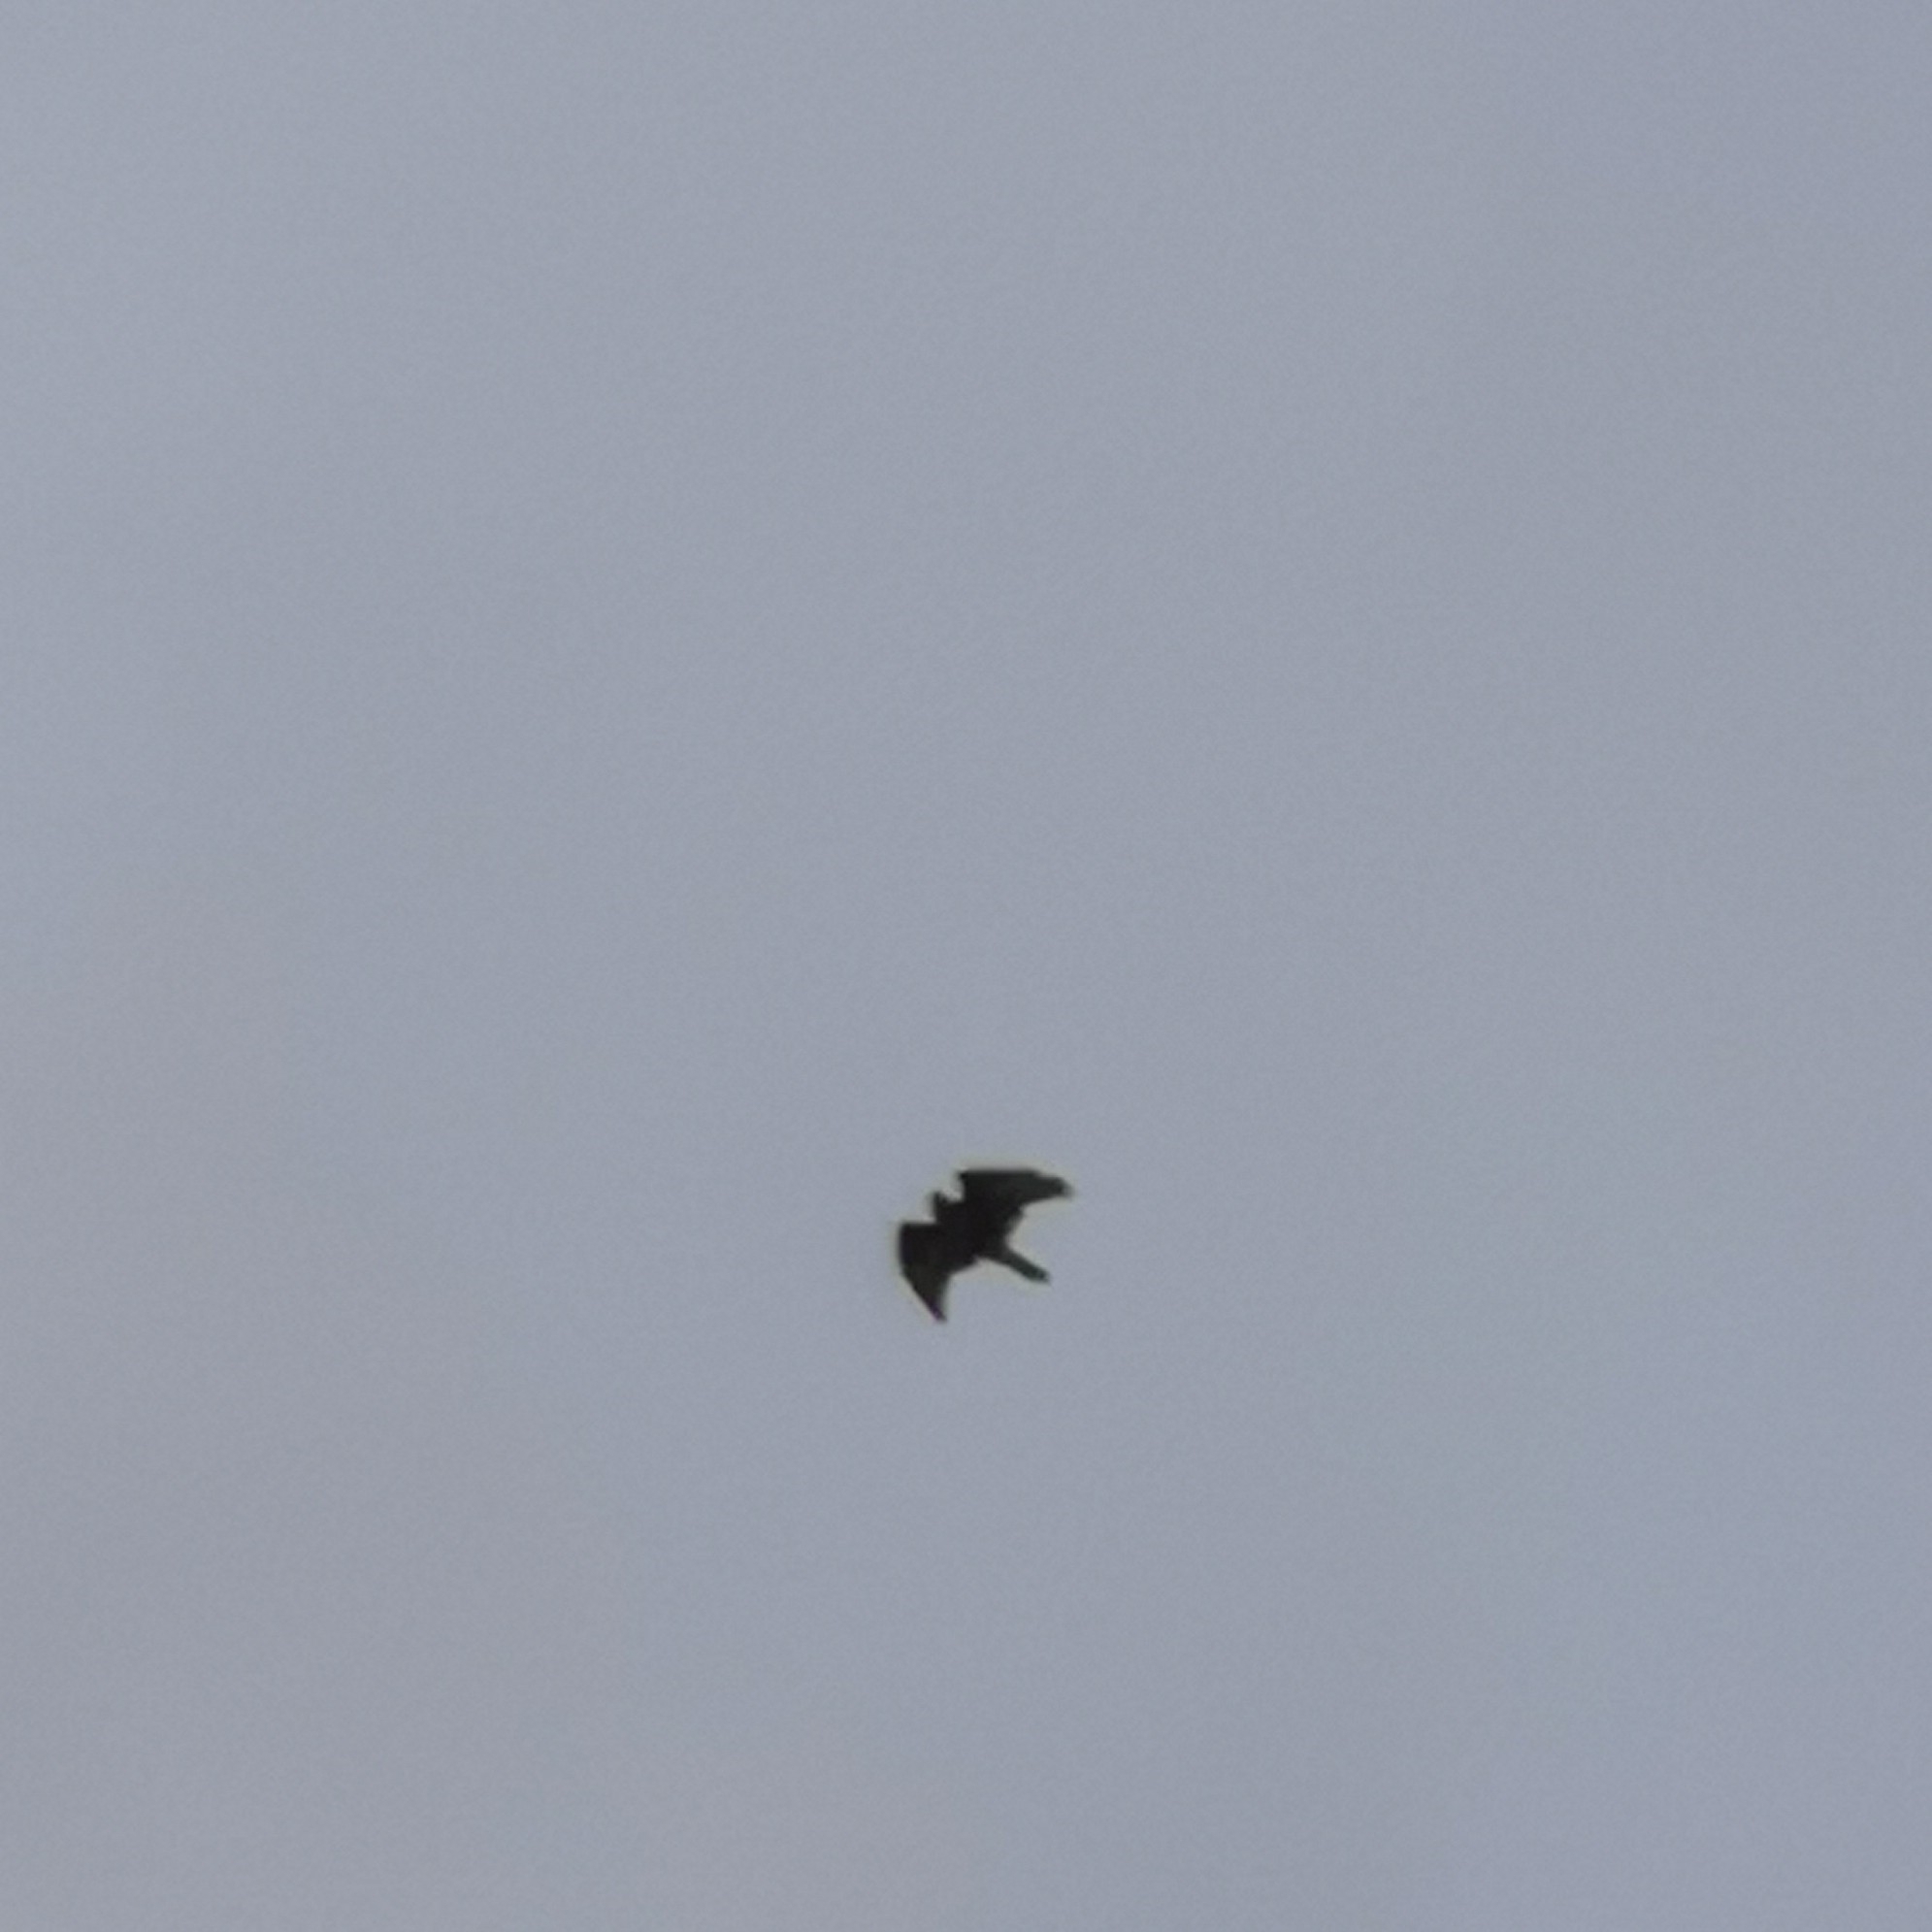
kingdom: Animalia
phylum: Chordata
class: Aves
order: Accipitriformes
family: Accipitridae
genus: Buteo
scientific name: Buteo buteo
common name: Common buzzard
